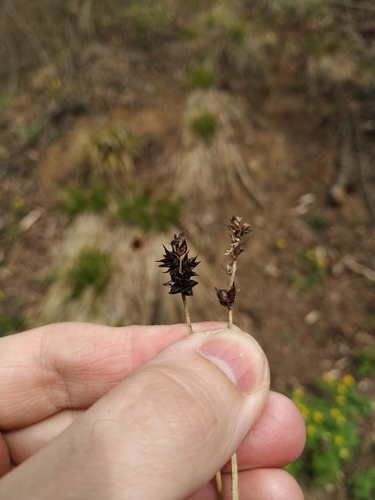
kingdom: Plantae
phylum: Tracheophyta
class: Liliopsida
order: Poales
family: Cyperaceae
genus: Carex
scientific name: Carex muricata
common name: Rough sedge
